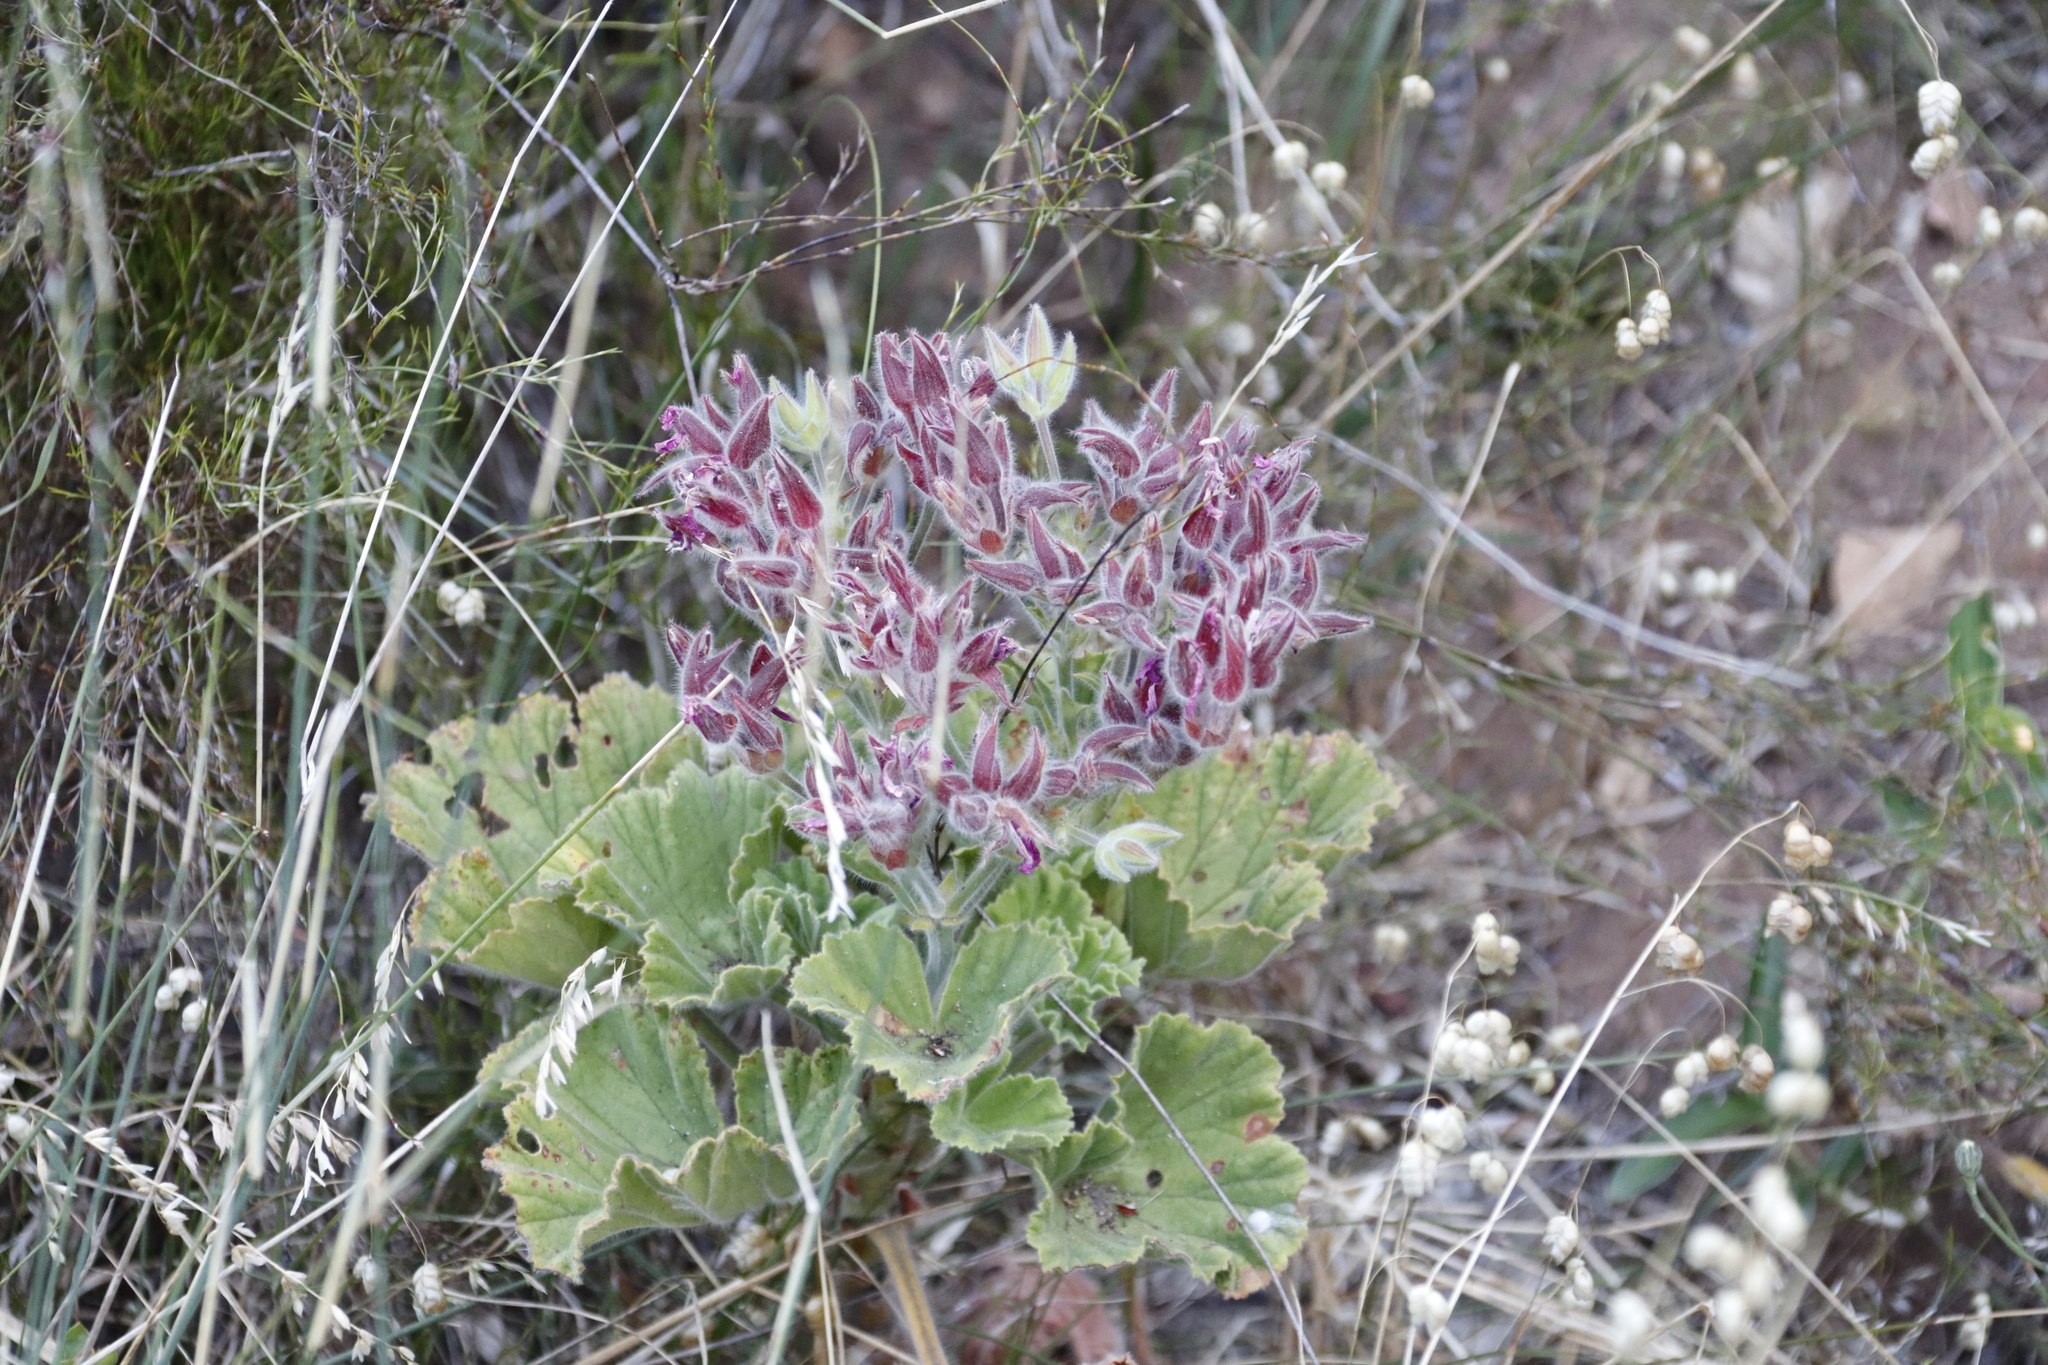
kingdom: Plantae
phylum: Tracheophyta
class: Magnoliopsida
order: Geraniales
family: Geraniaceae
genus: Pelargonium
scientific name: Pelargonium cucullatum
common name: Tree pelargonium
